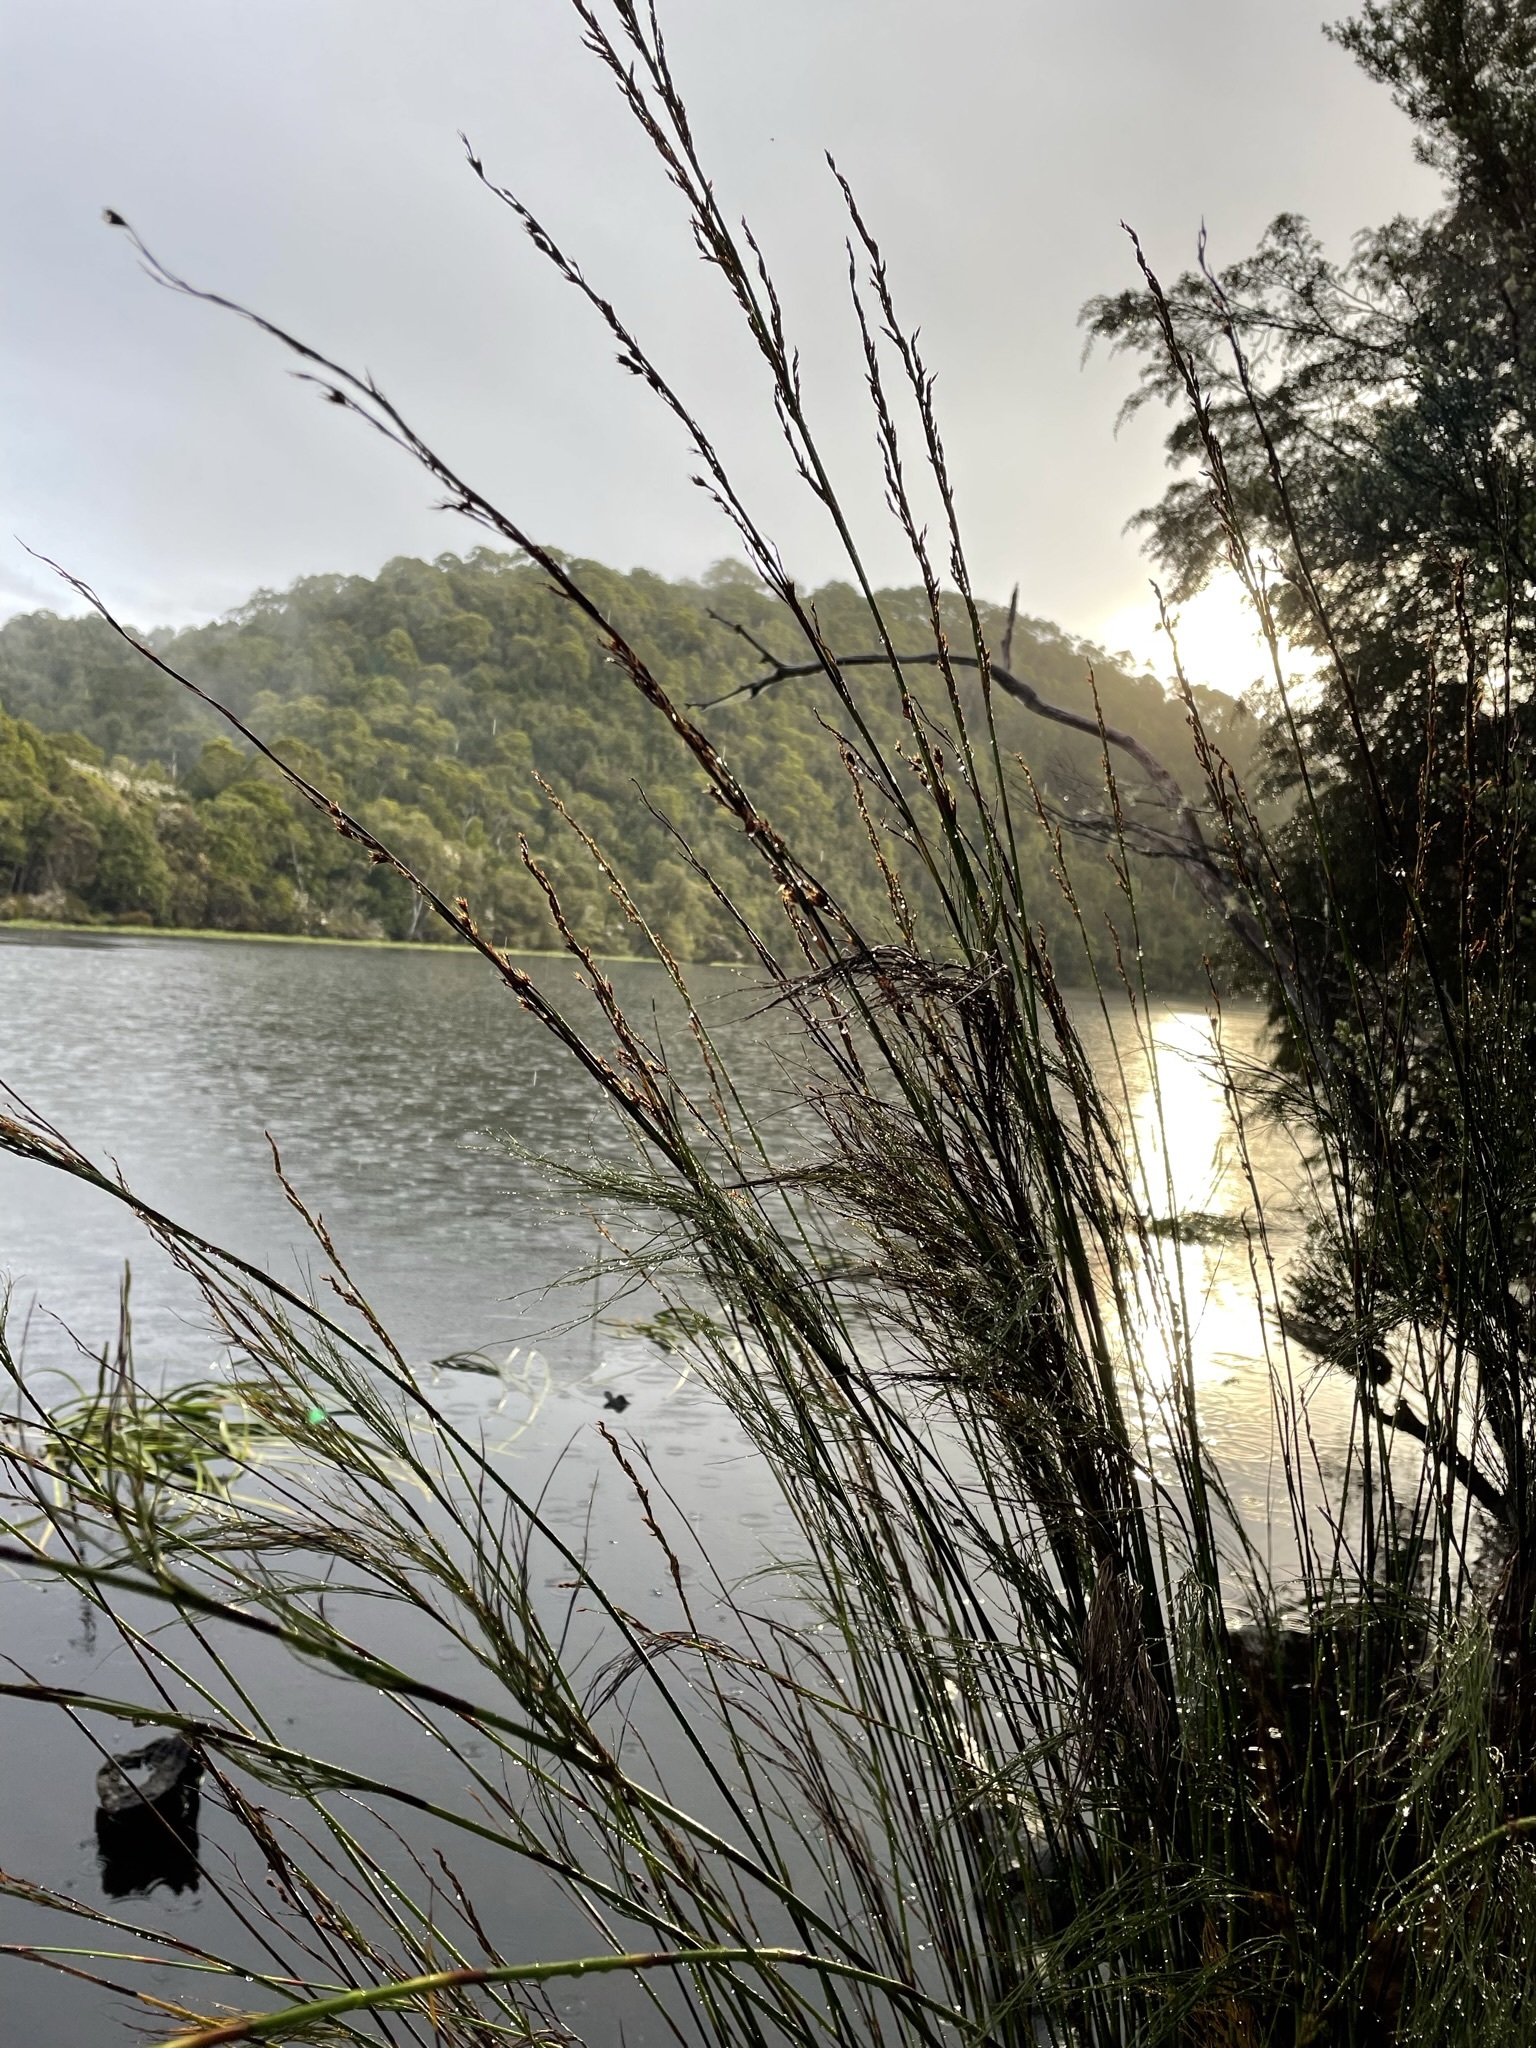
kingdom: Plantae
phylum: Tracheophyta
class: Liliopsida
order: Poales
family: Restionaceae
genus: Baloskion
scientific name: Baloskion tetraphyllum
